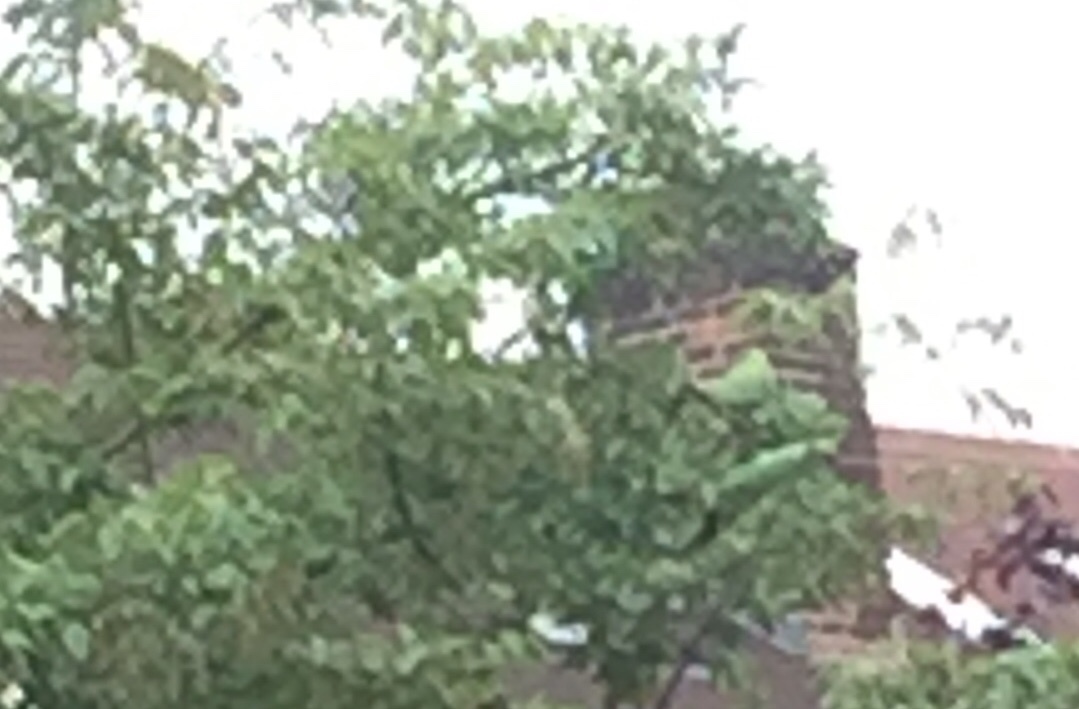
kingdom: Animalia
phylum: Chordata
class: Aves
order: Psittaciformes
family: Psittacidae
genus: Psittacula
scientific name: Psittacula krameri
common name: Rose-ringed parakeet
